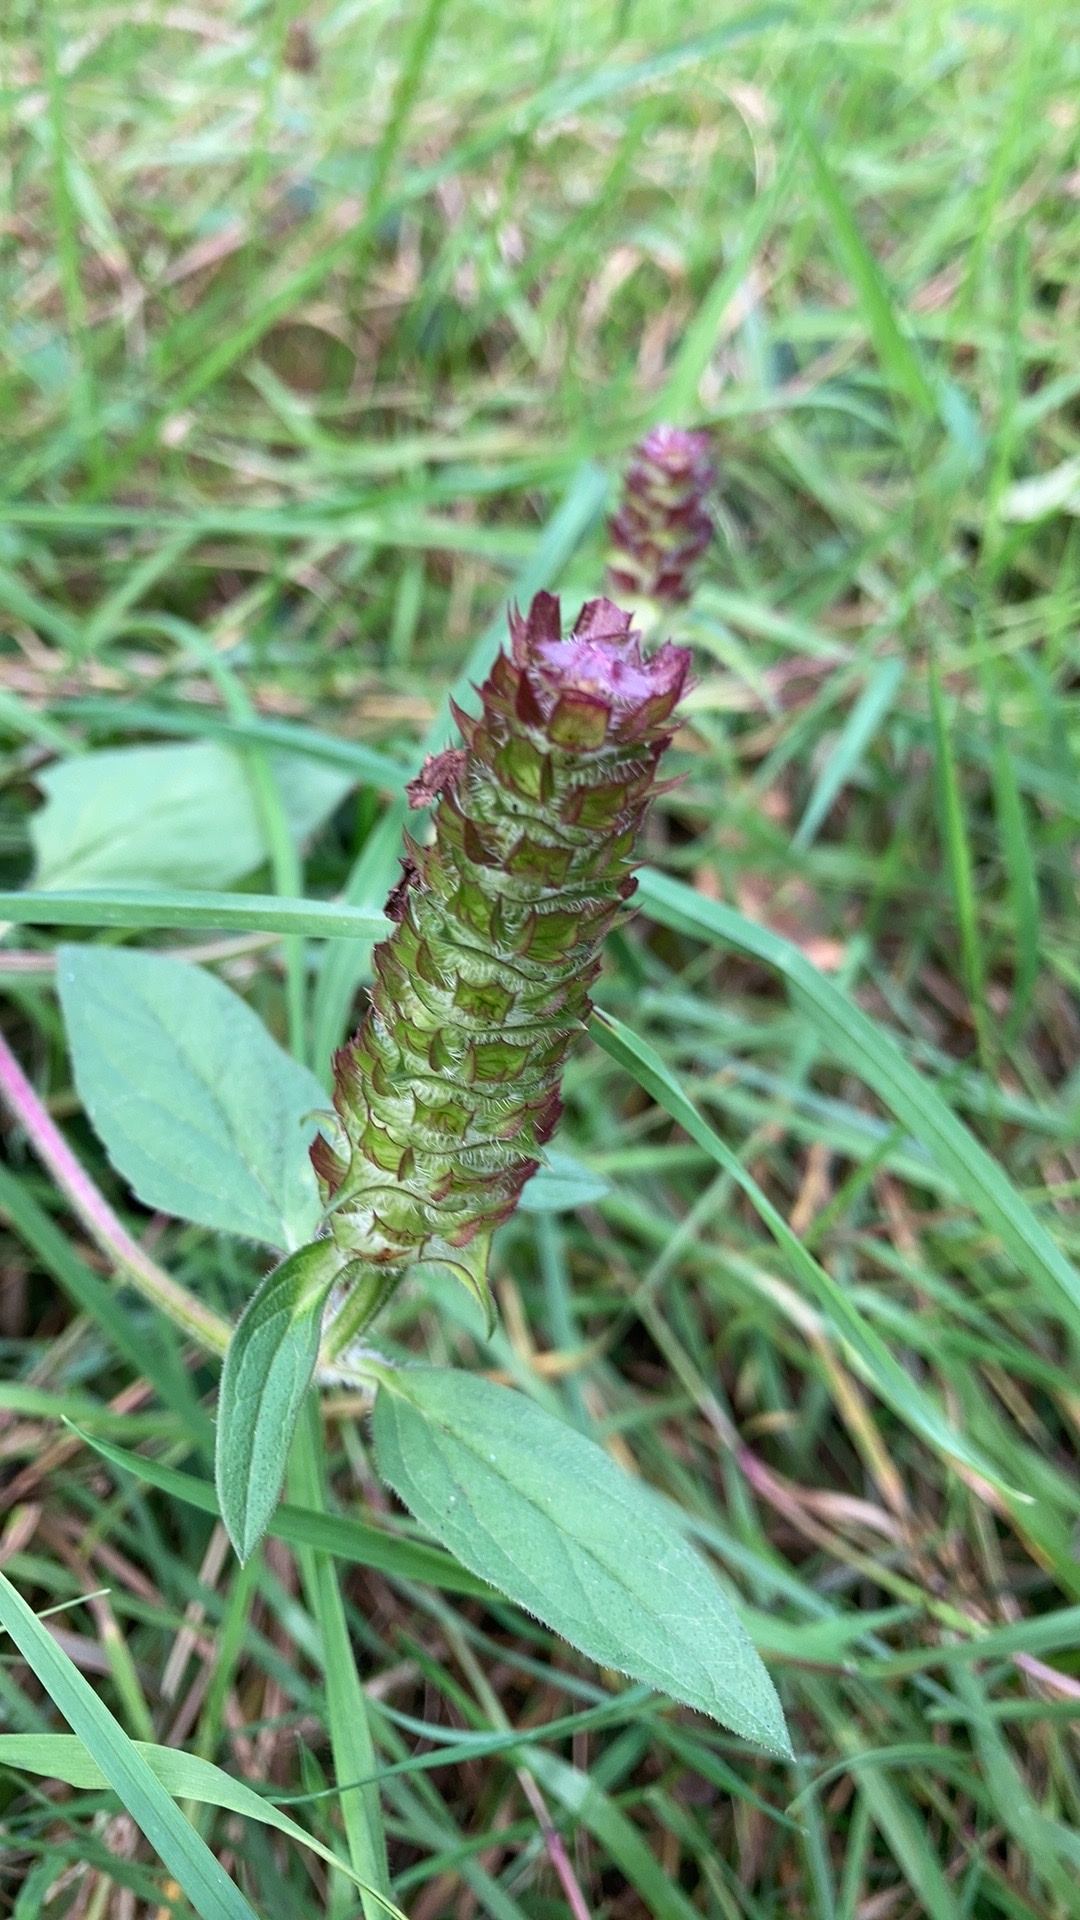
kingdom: Plantae
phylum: Tracheophyta
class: Magnoliopsida
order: Lamiales
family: Lamiaceae
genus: Prunella
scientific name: Prunella vulgaris
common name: Heal-all
